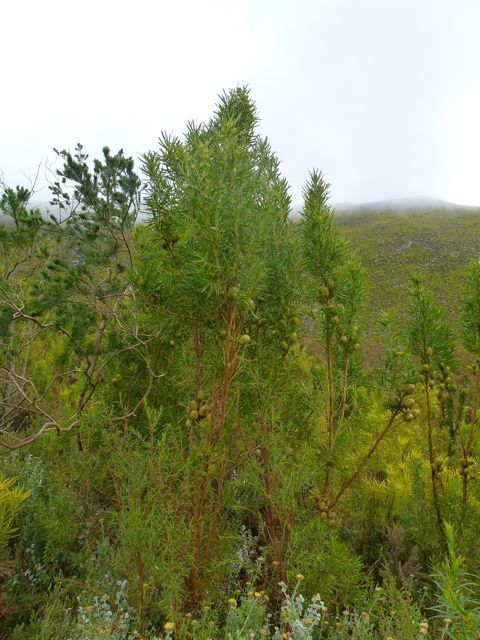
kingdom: Plantae
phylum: Tracheophyta
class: Magnoliopsida
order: Proteales
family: Proteaceae
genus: Leucadendron
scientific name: Leucadendron salicifolium
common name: Common stream conebush
